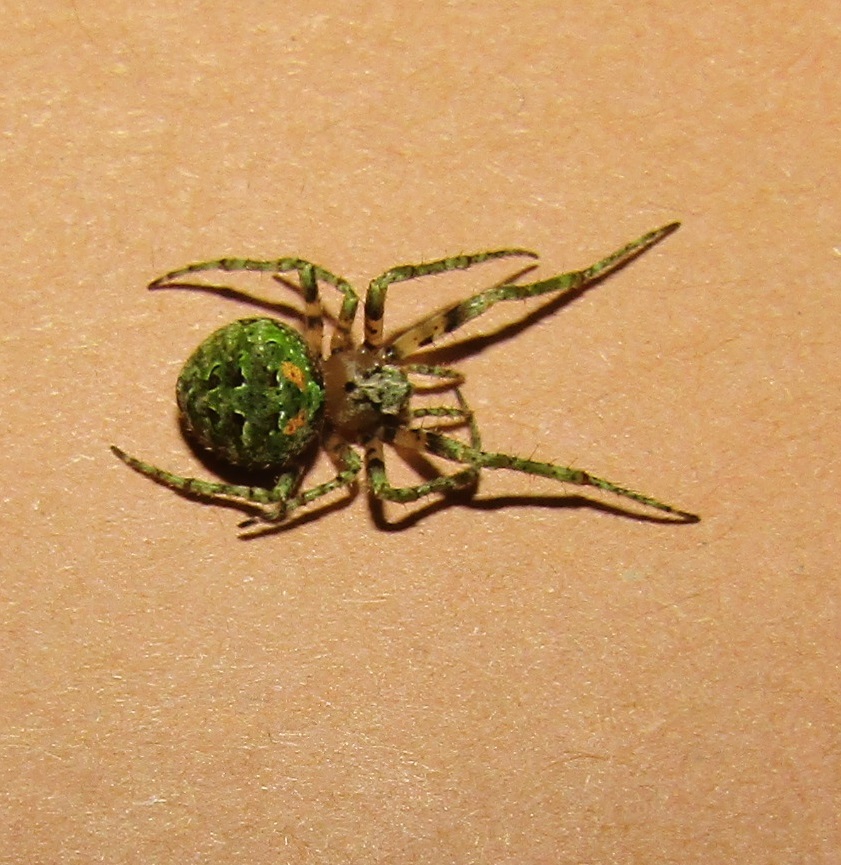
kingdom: Animalia
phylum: Arthropoda
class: Arachnida
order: Araneae
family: Araneidae
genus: Cryptaranea
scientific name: Cryptaranea
